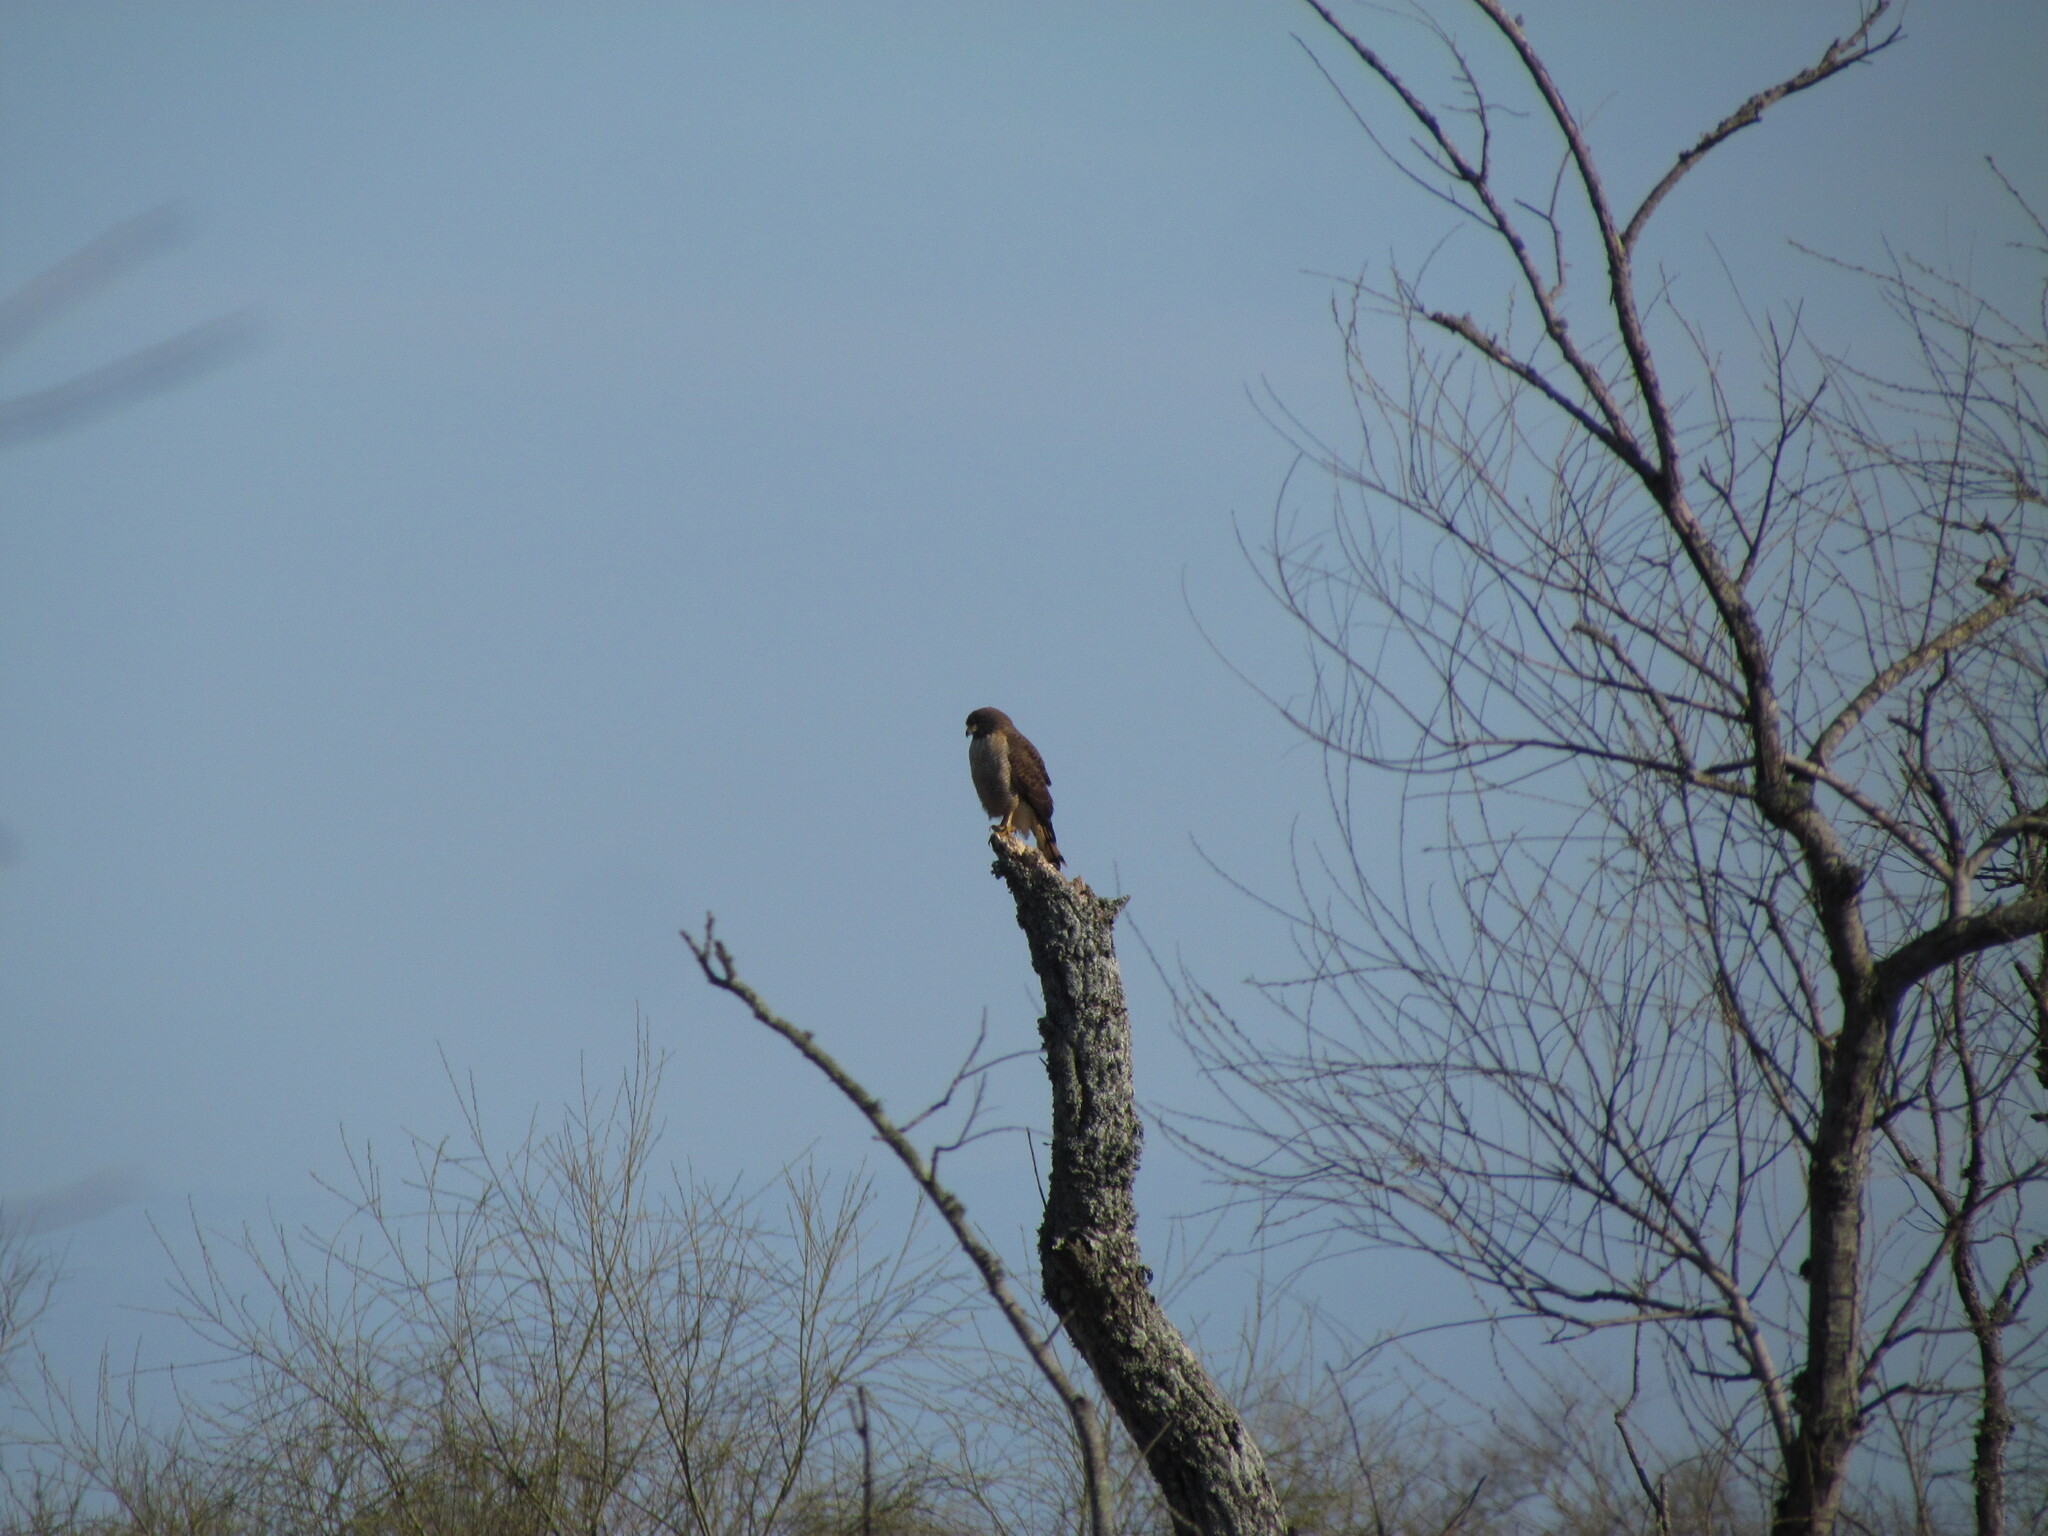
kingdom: Animalia
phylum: Chordata
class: Aves
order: Accipitriformes
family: Accipitridae
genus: Rupornis
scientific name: Rupornis magnirostris
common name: Roadside hawk
